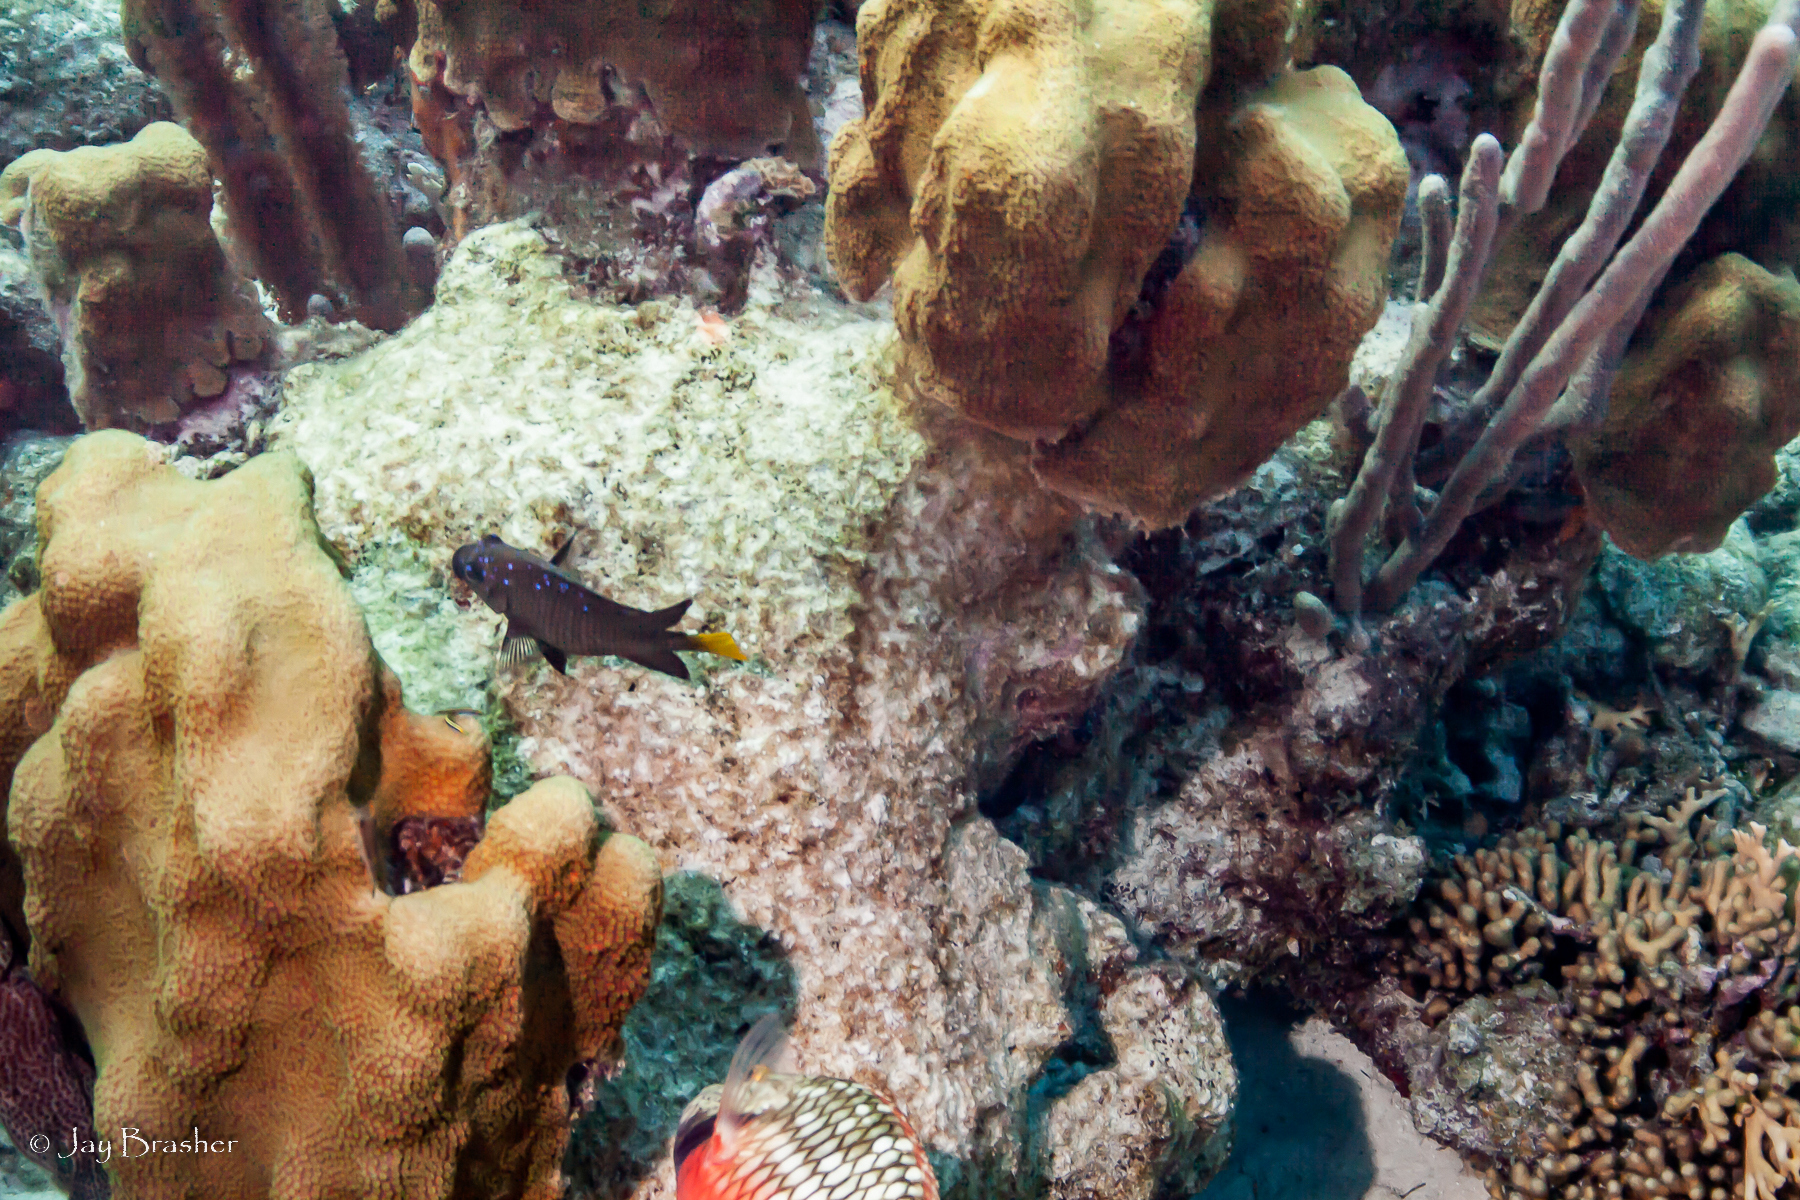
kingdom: Animalia
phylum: Chordata
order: Perciformes
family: Pomacentridae
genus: Microspathodon
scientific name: Microspathodon chrysurus
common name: Yellowtail damselfish
